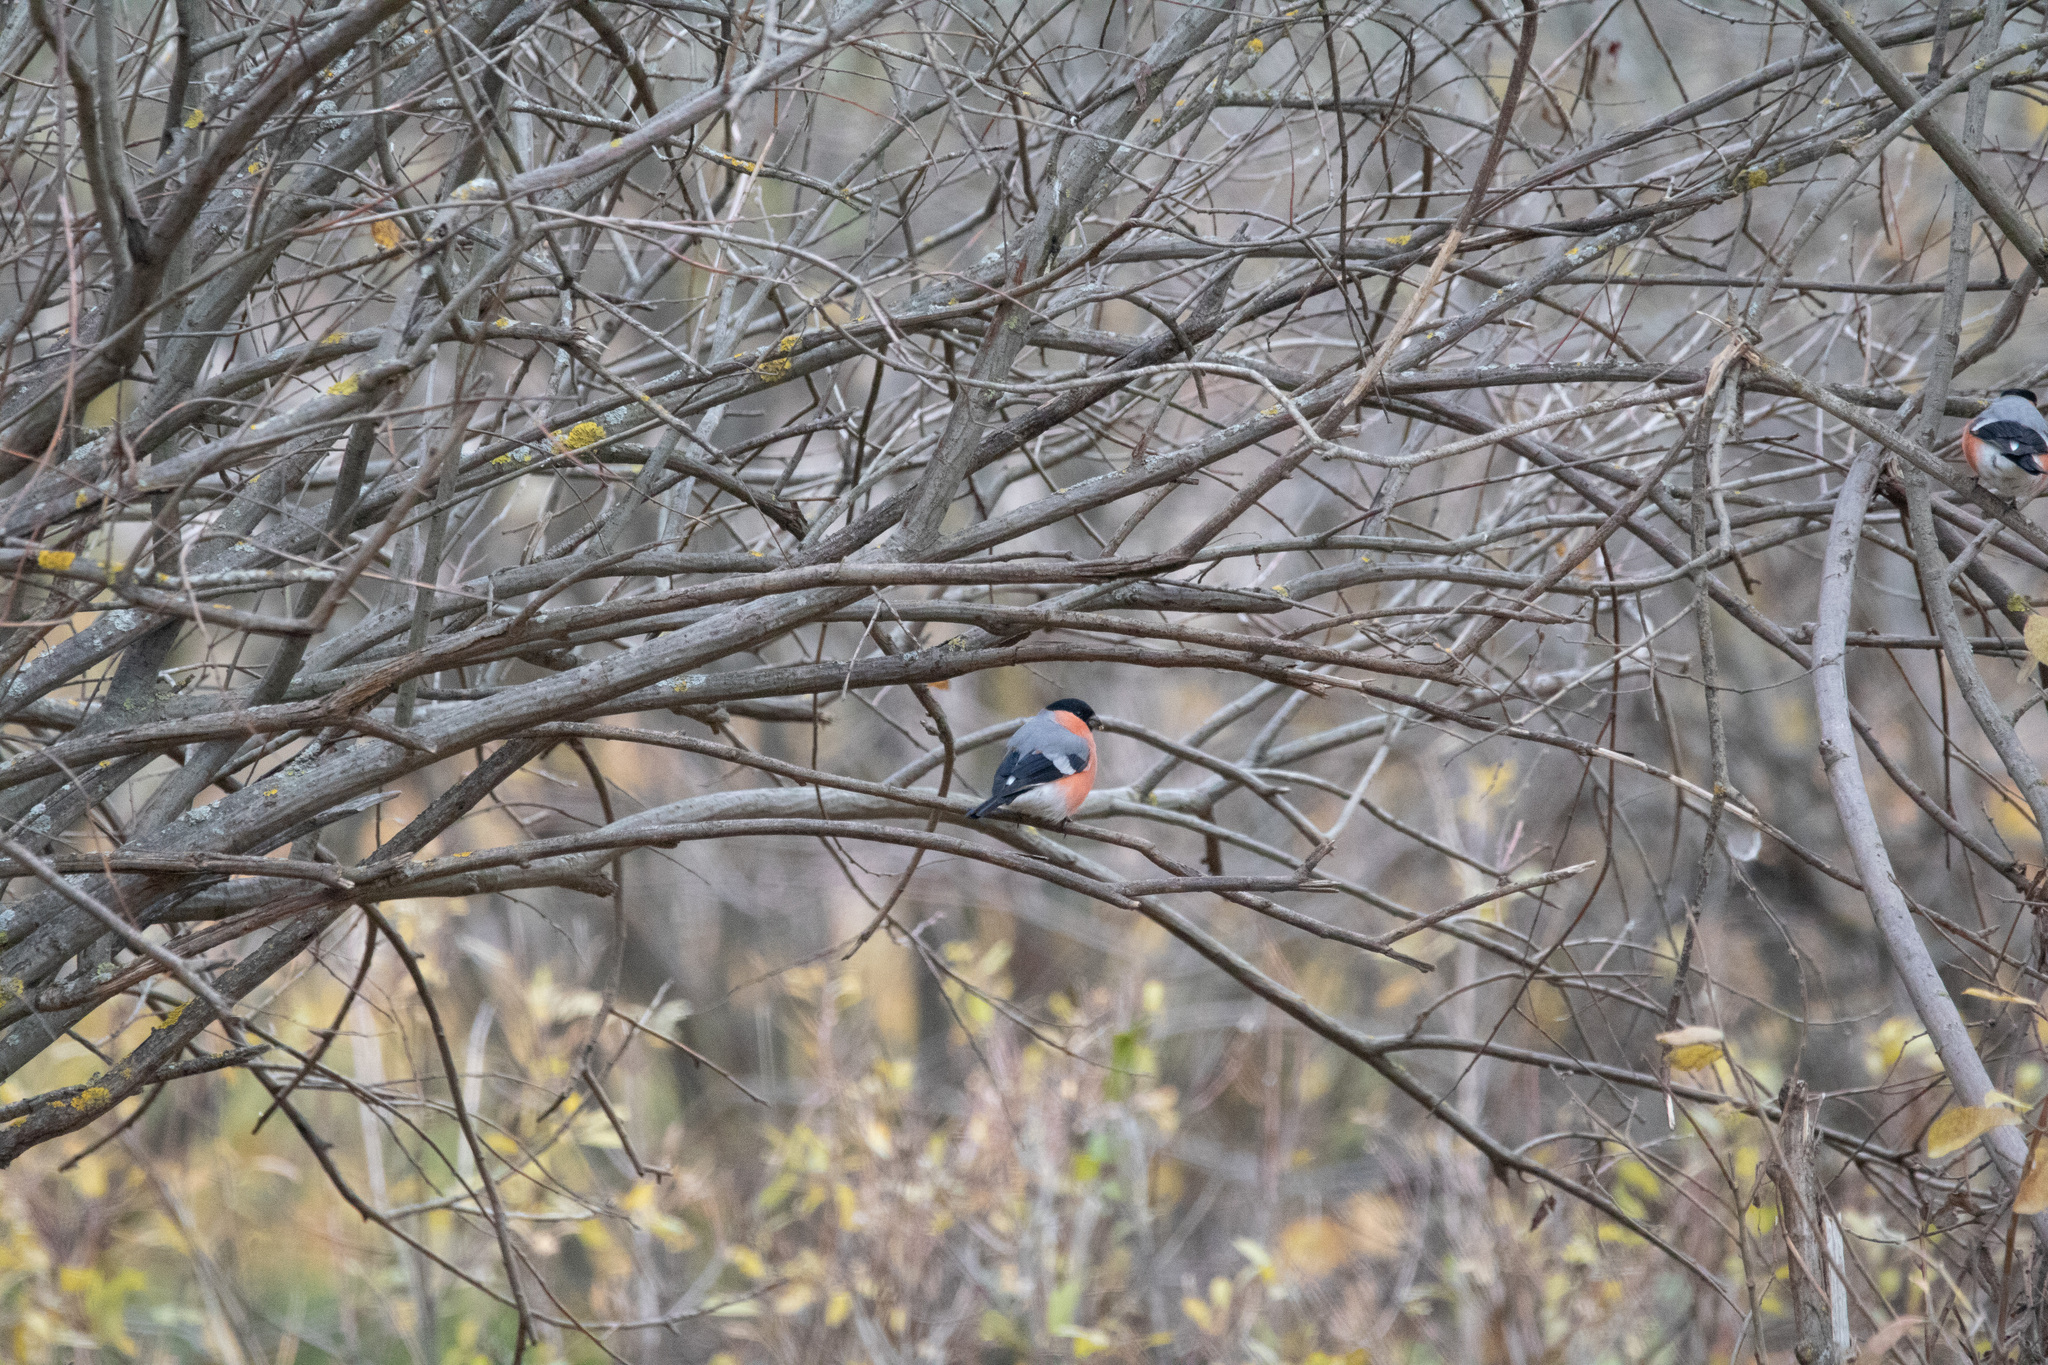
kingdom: Animalia
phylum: Chordata
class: Aves
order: Passeriformes
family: Fringillidae
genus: Pyrrhula
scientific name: Pyrrhula pyrrhula
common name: Eurasian bullfinch
